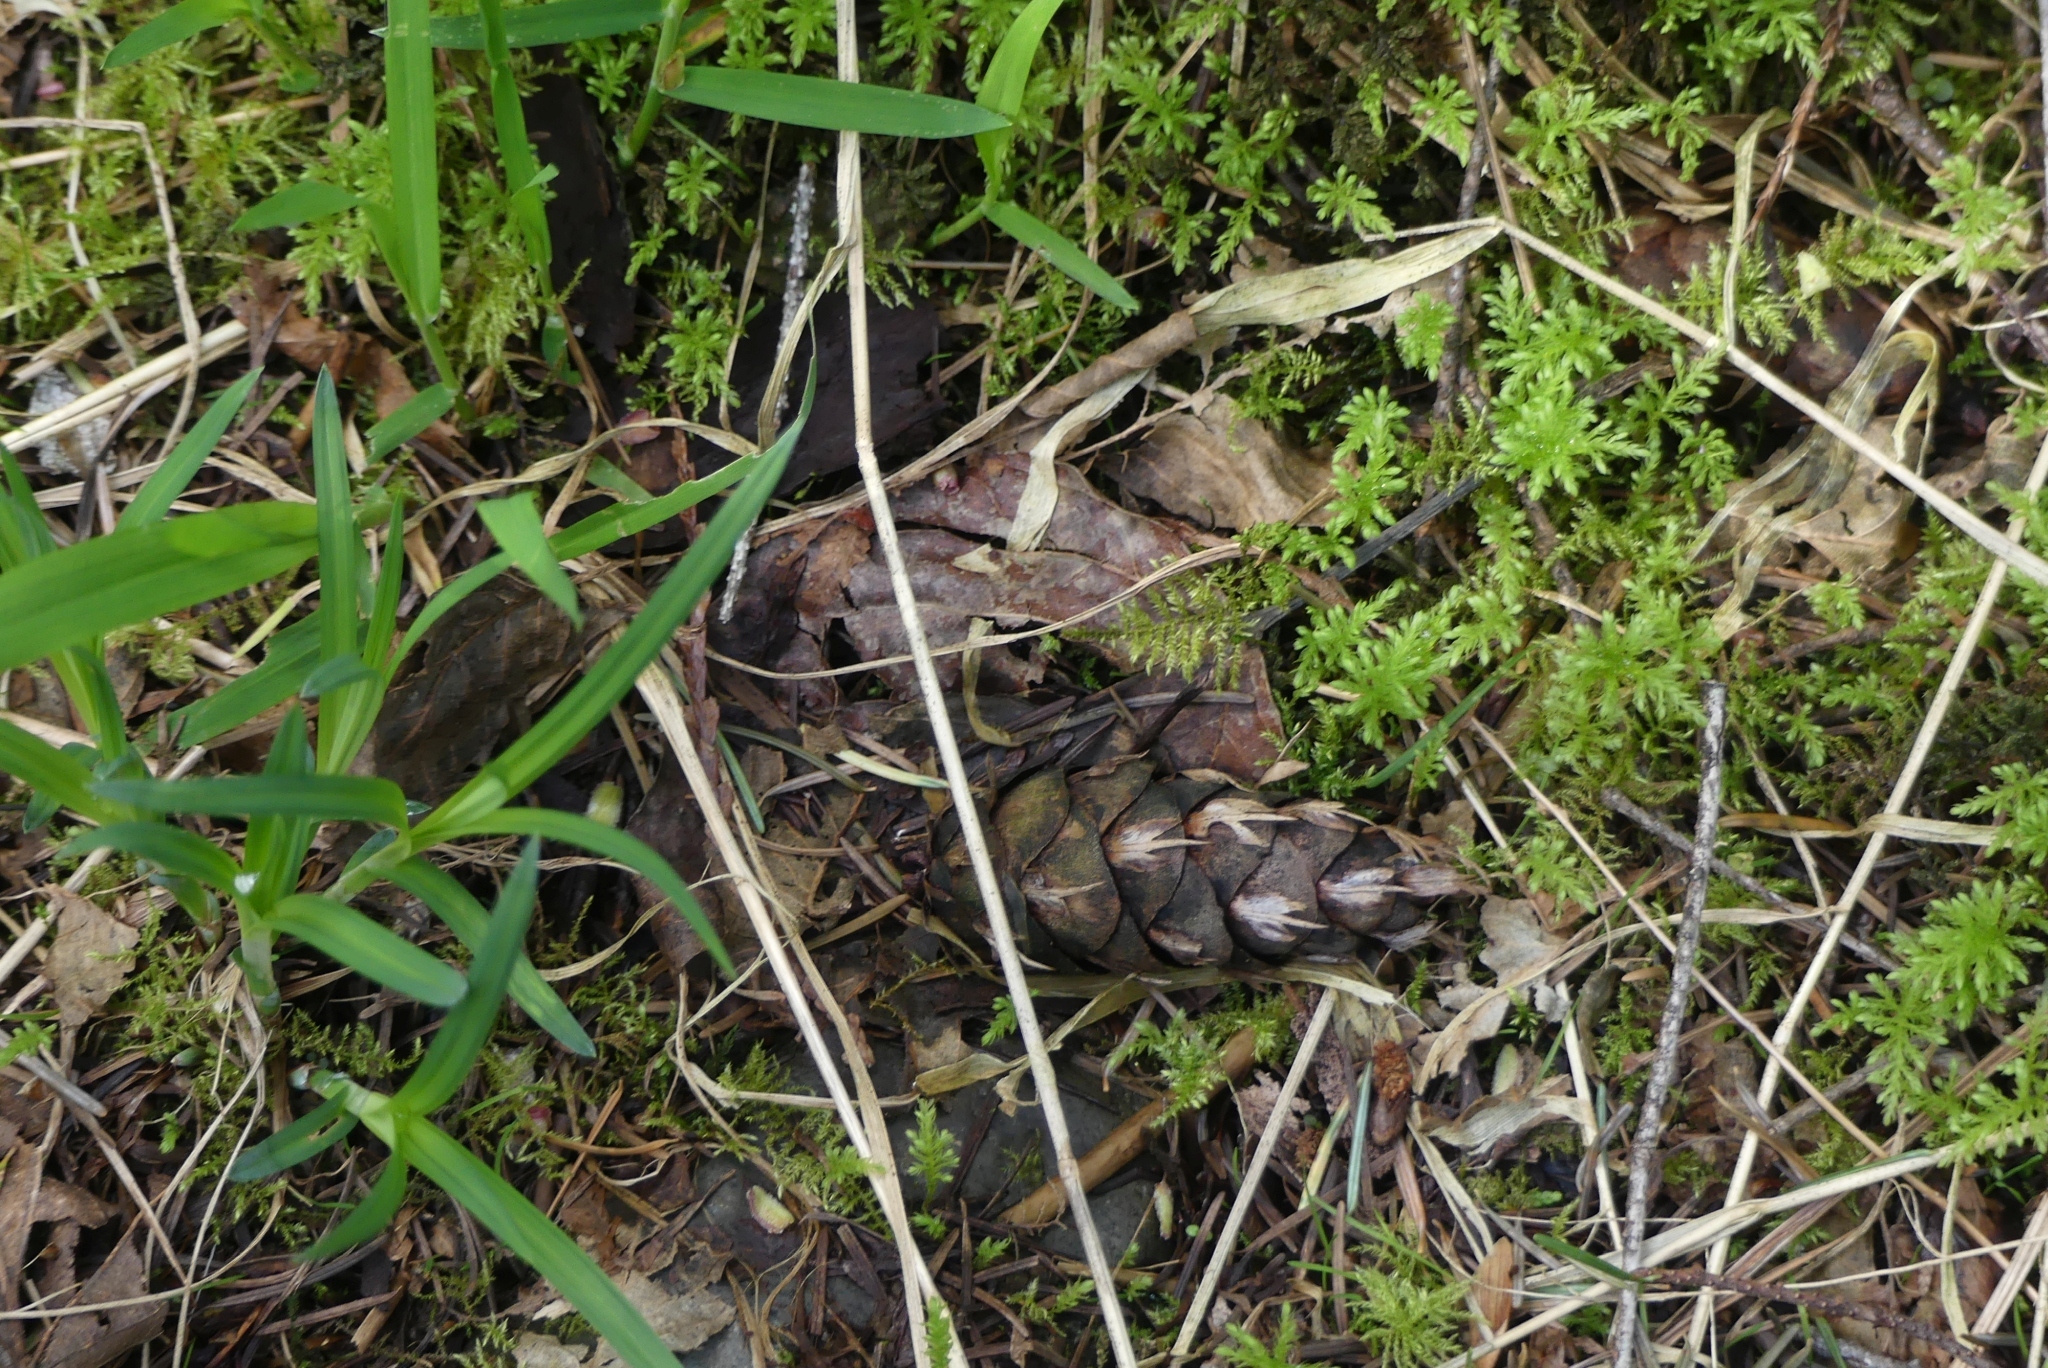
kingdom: Plantae
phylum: Tracheophyta
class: Pinopsida
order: Pinales
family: Pinaceae
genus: Pseudotsuga
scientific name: Pseudotsuga menziesii
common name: Douglas fir
